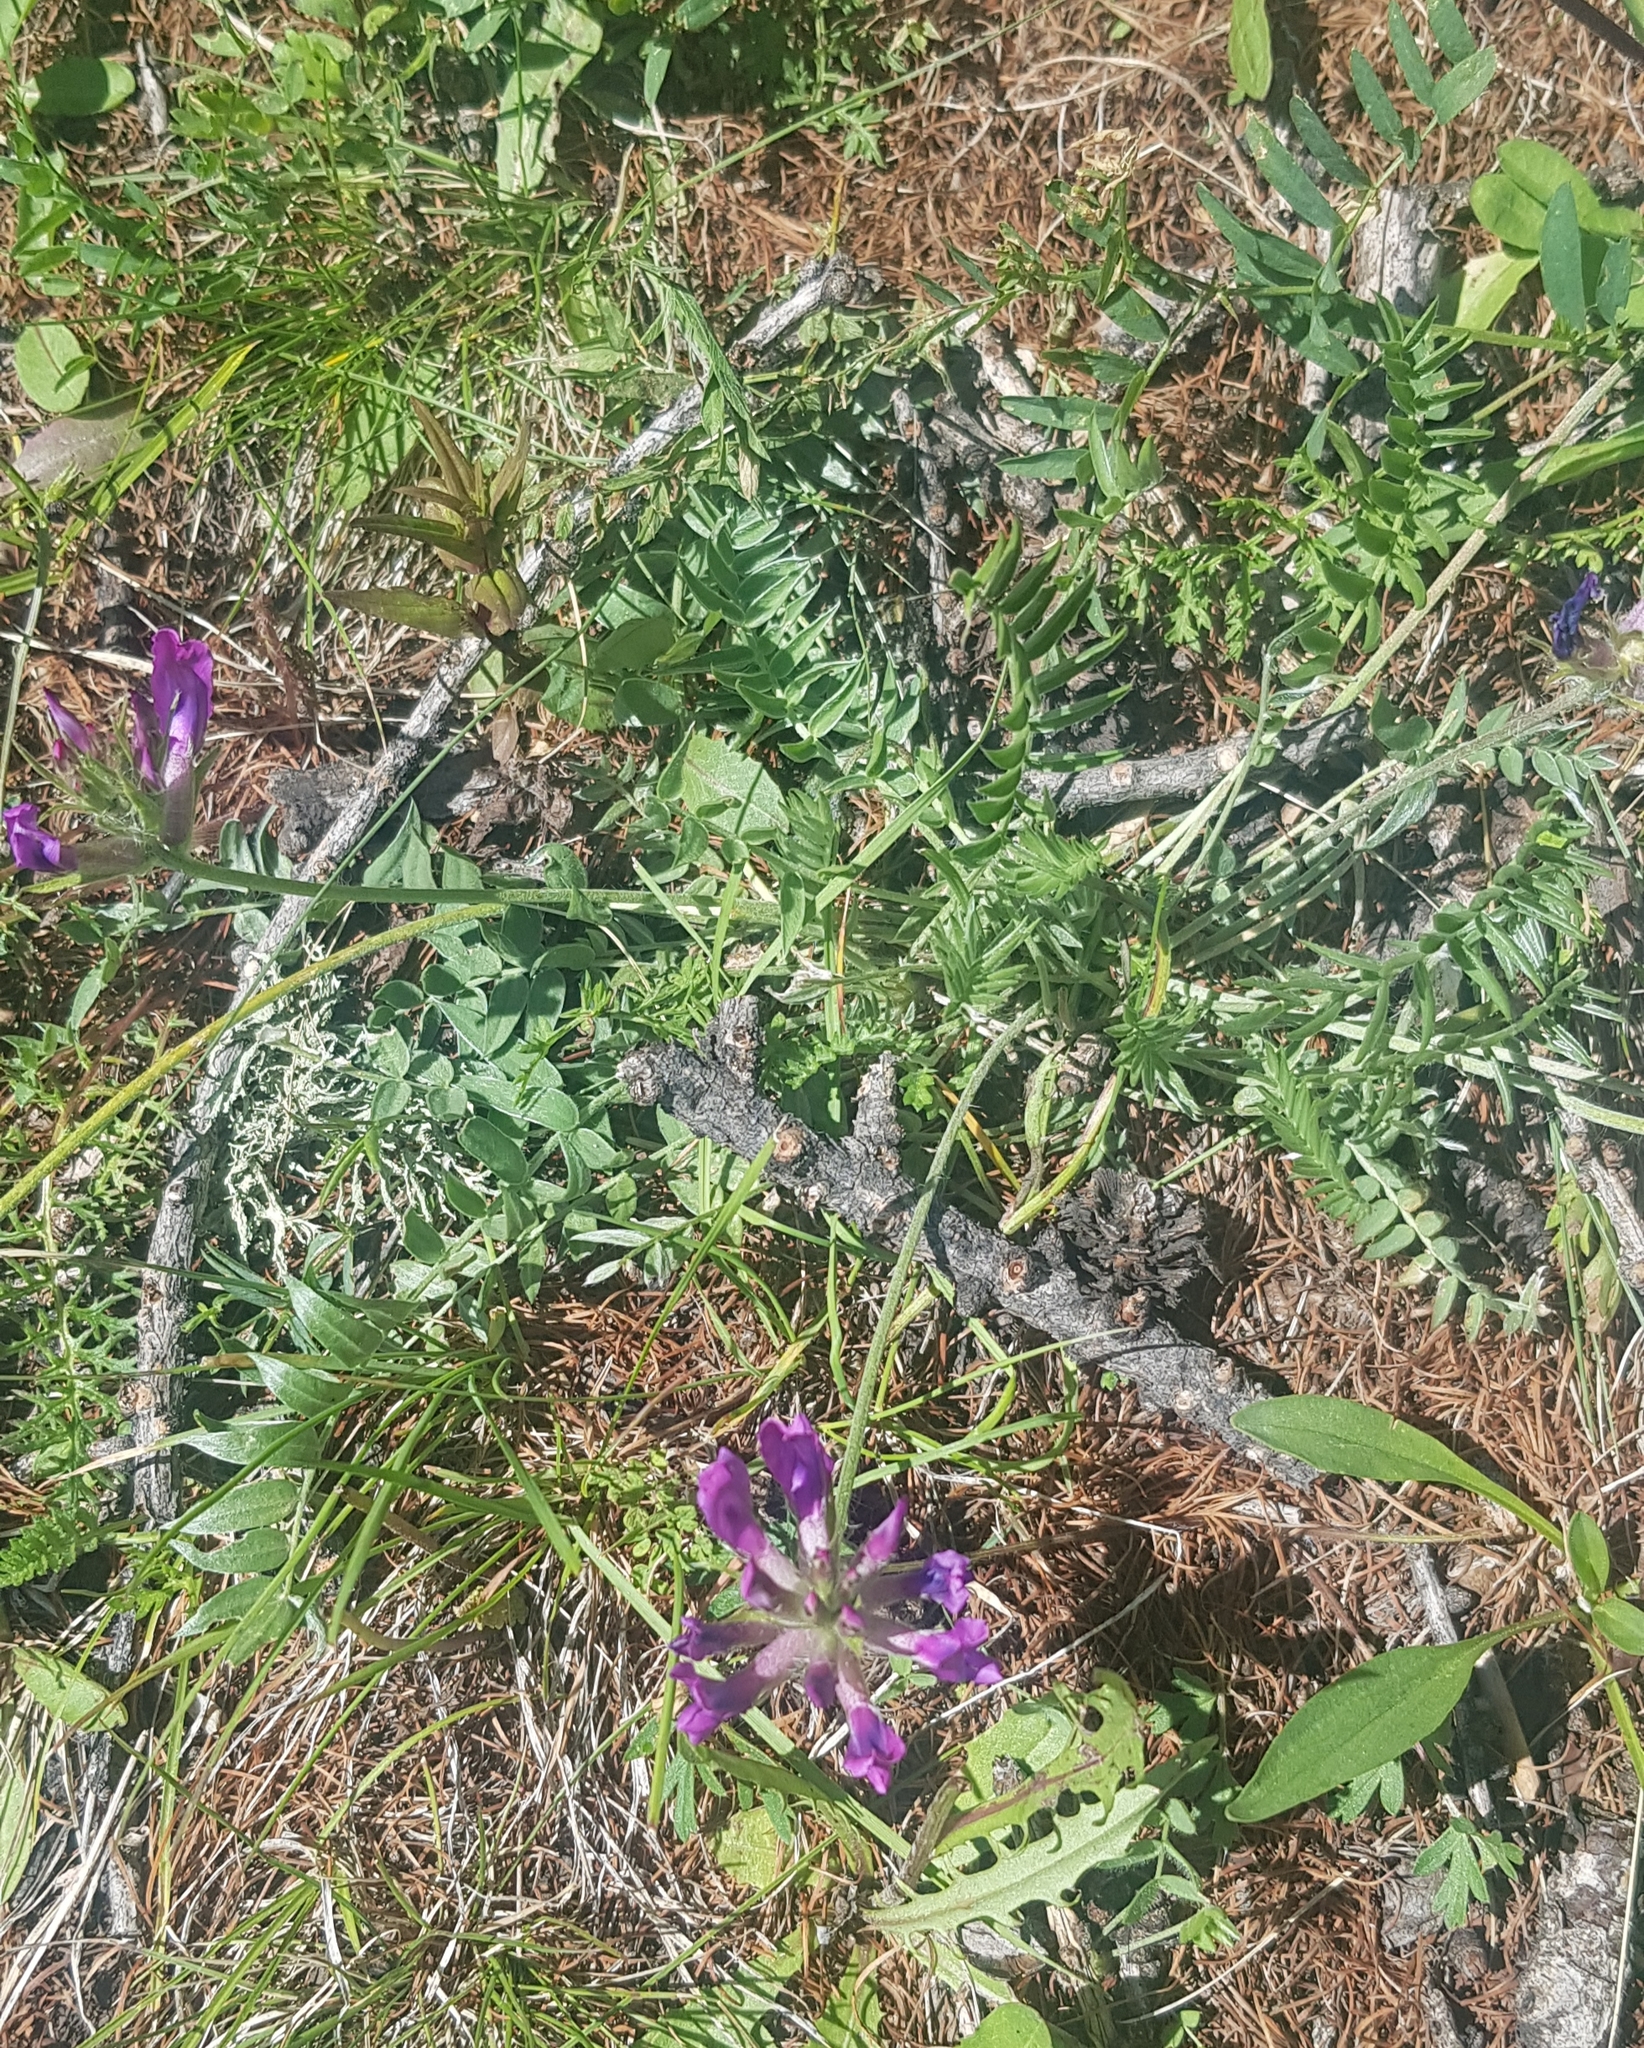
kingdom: Plantae
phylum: Tracheophyta
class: Magnoliopsida
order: Fabales
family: Fabaceae
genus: Oxytropis
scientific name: Oxytropis strobilacea
